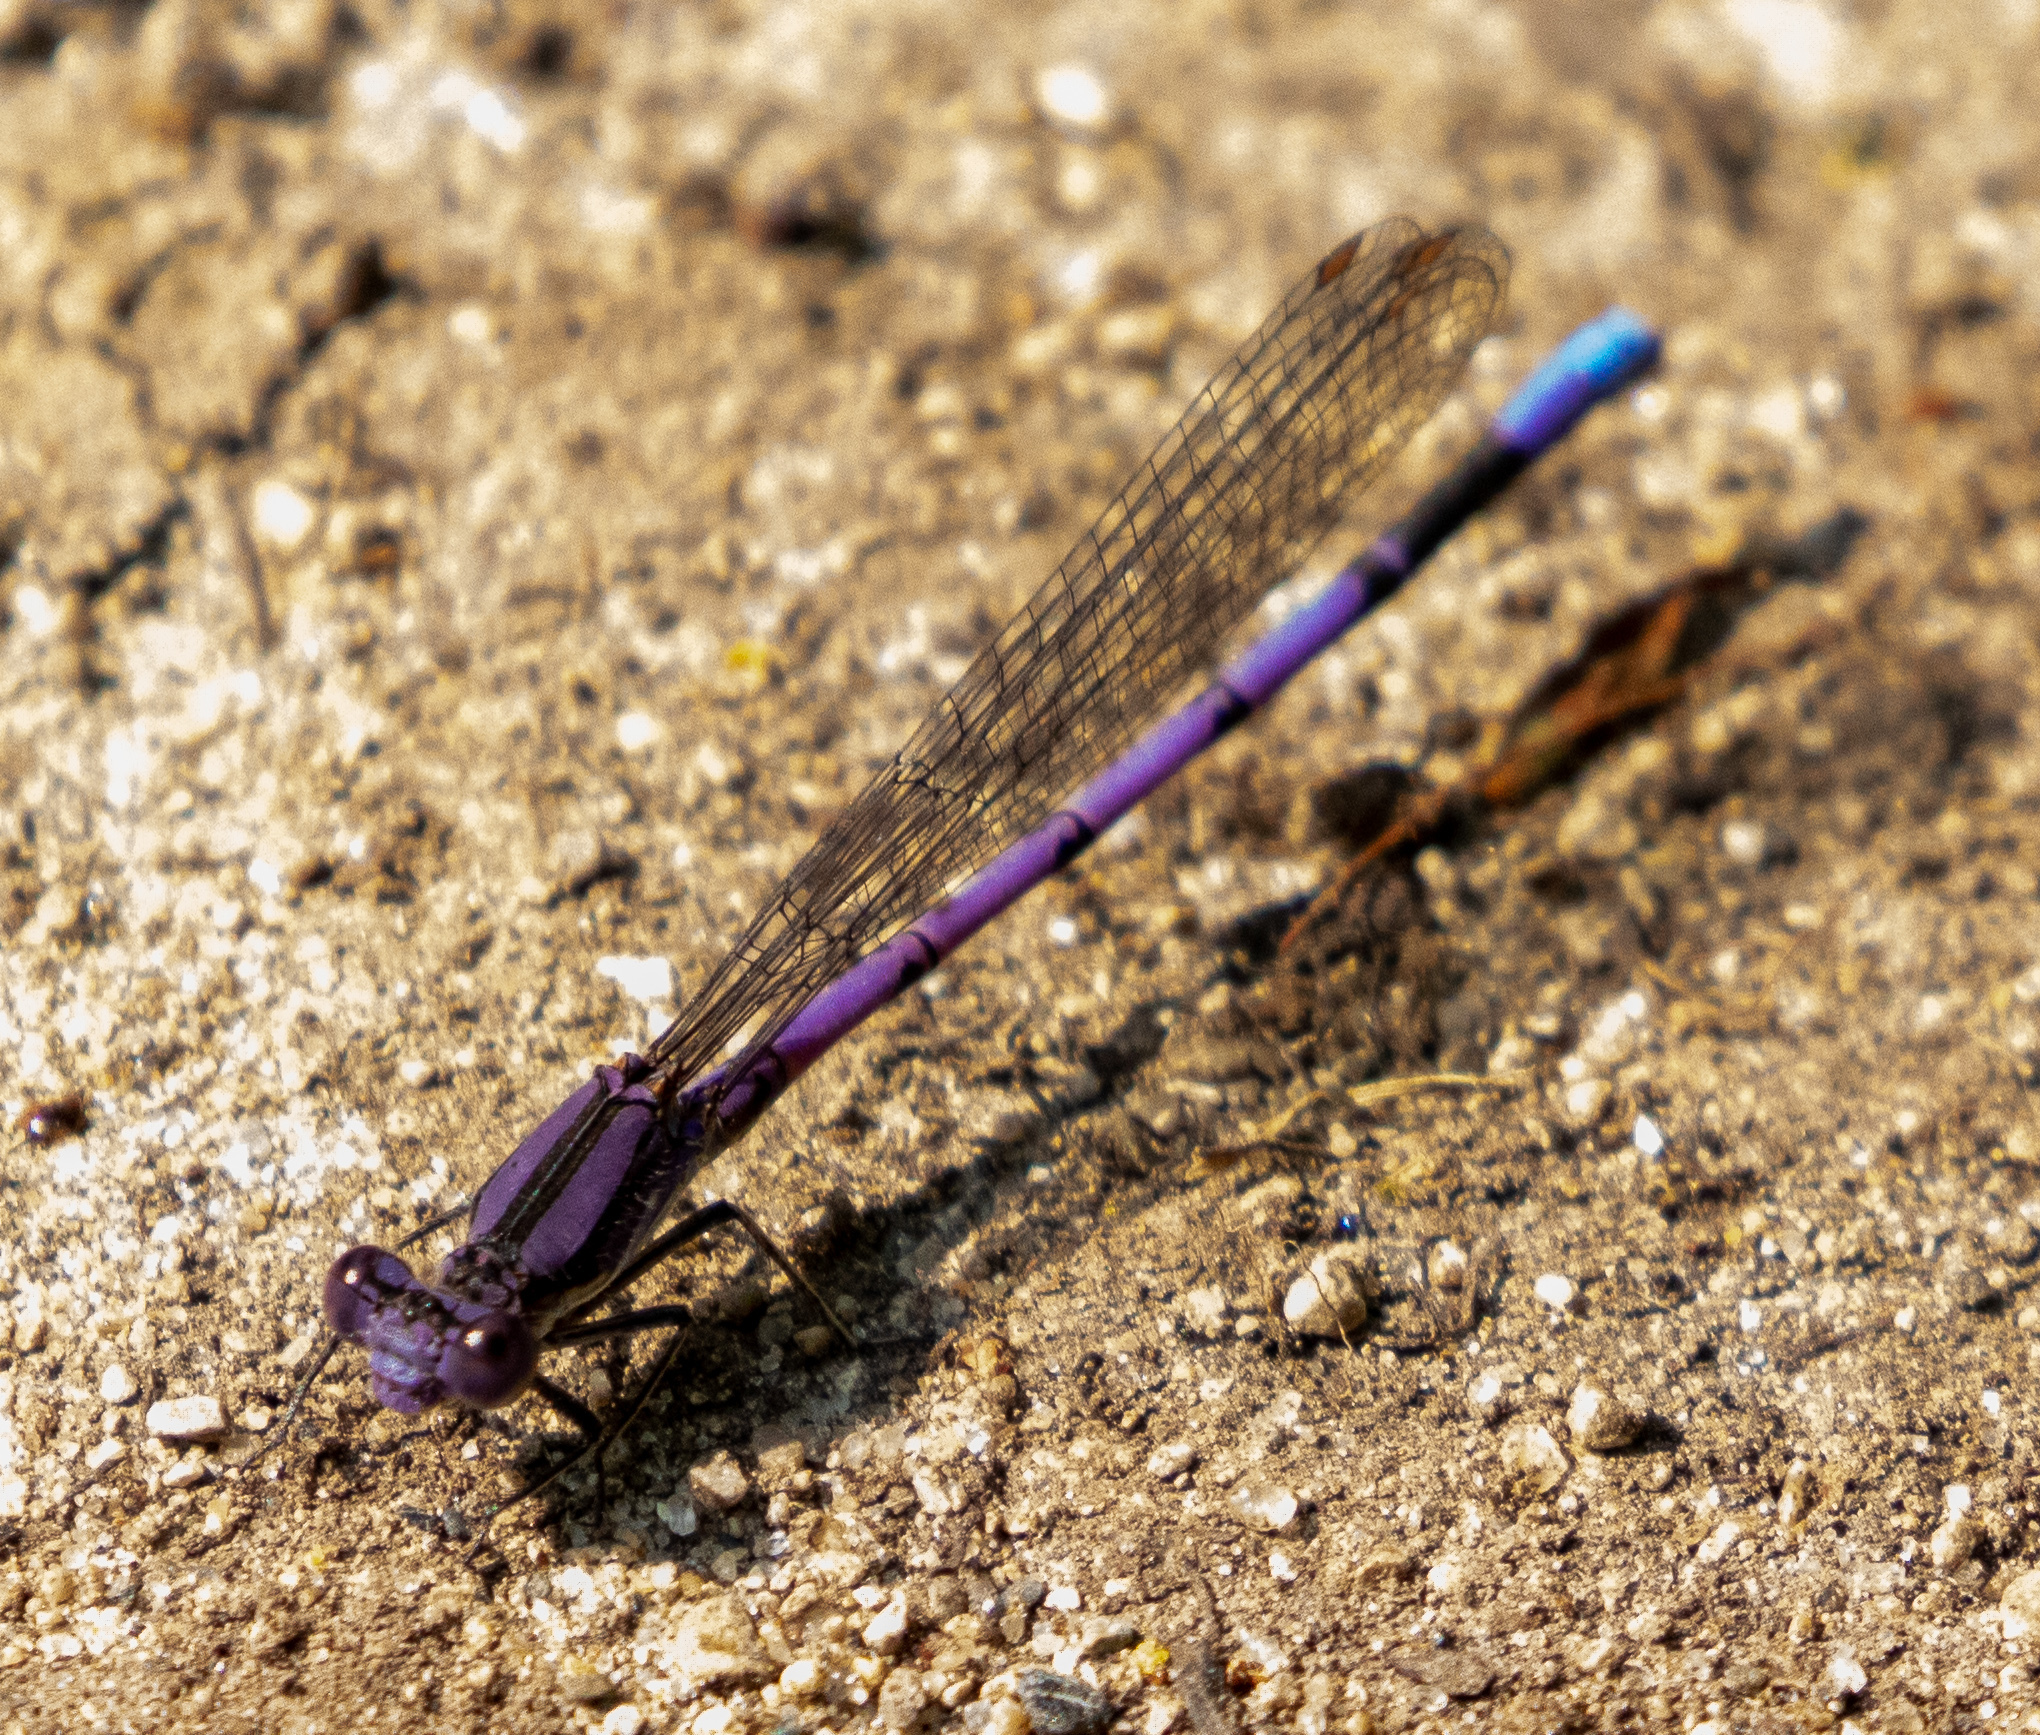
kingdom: Animalia
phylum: Arthropoda
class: Insecta
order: Odonata
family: Coenagrionidae
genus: Argia
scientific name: Argia fumipennis
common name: Variable dancer
